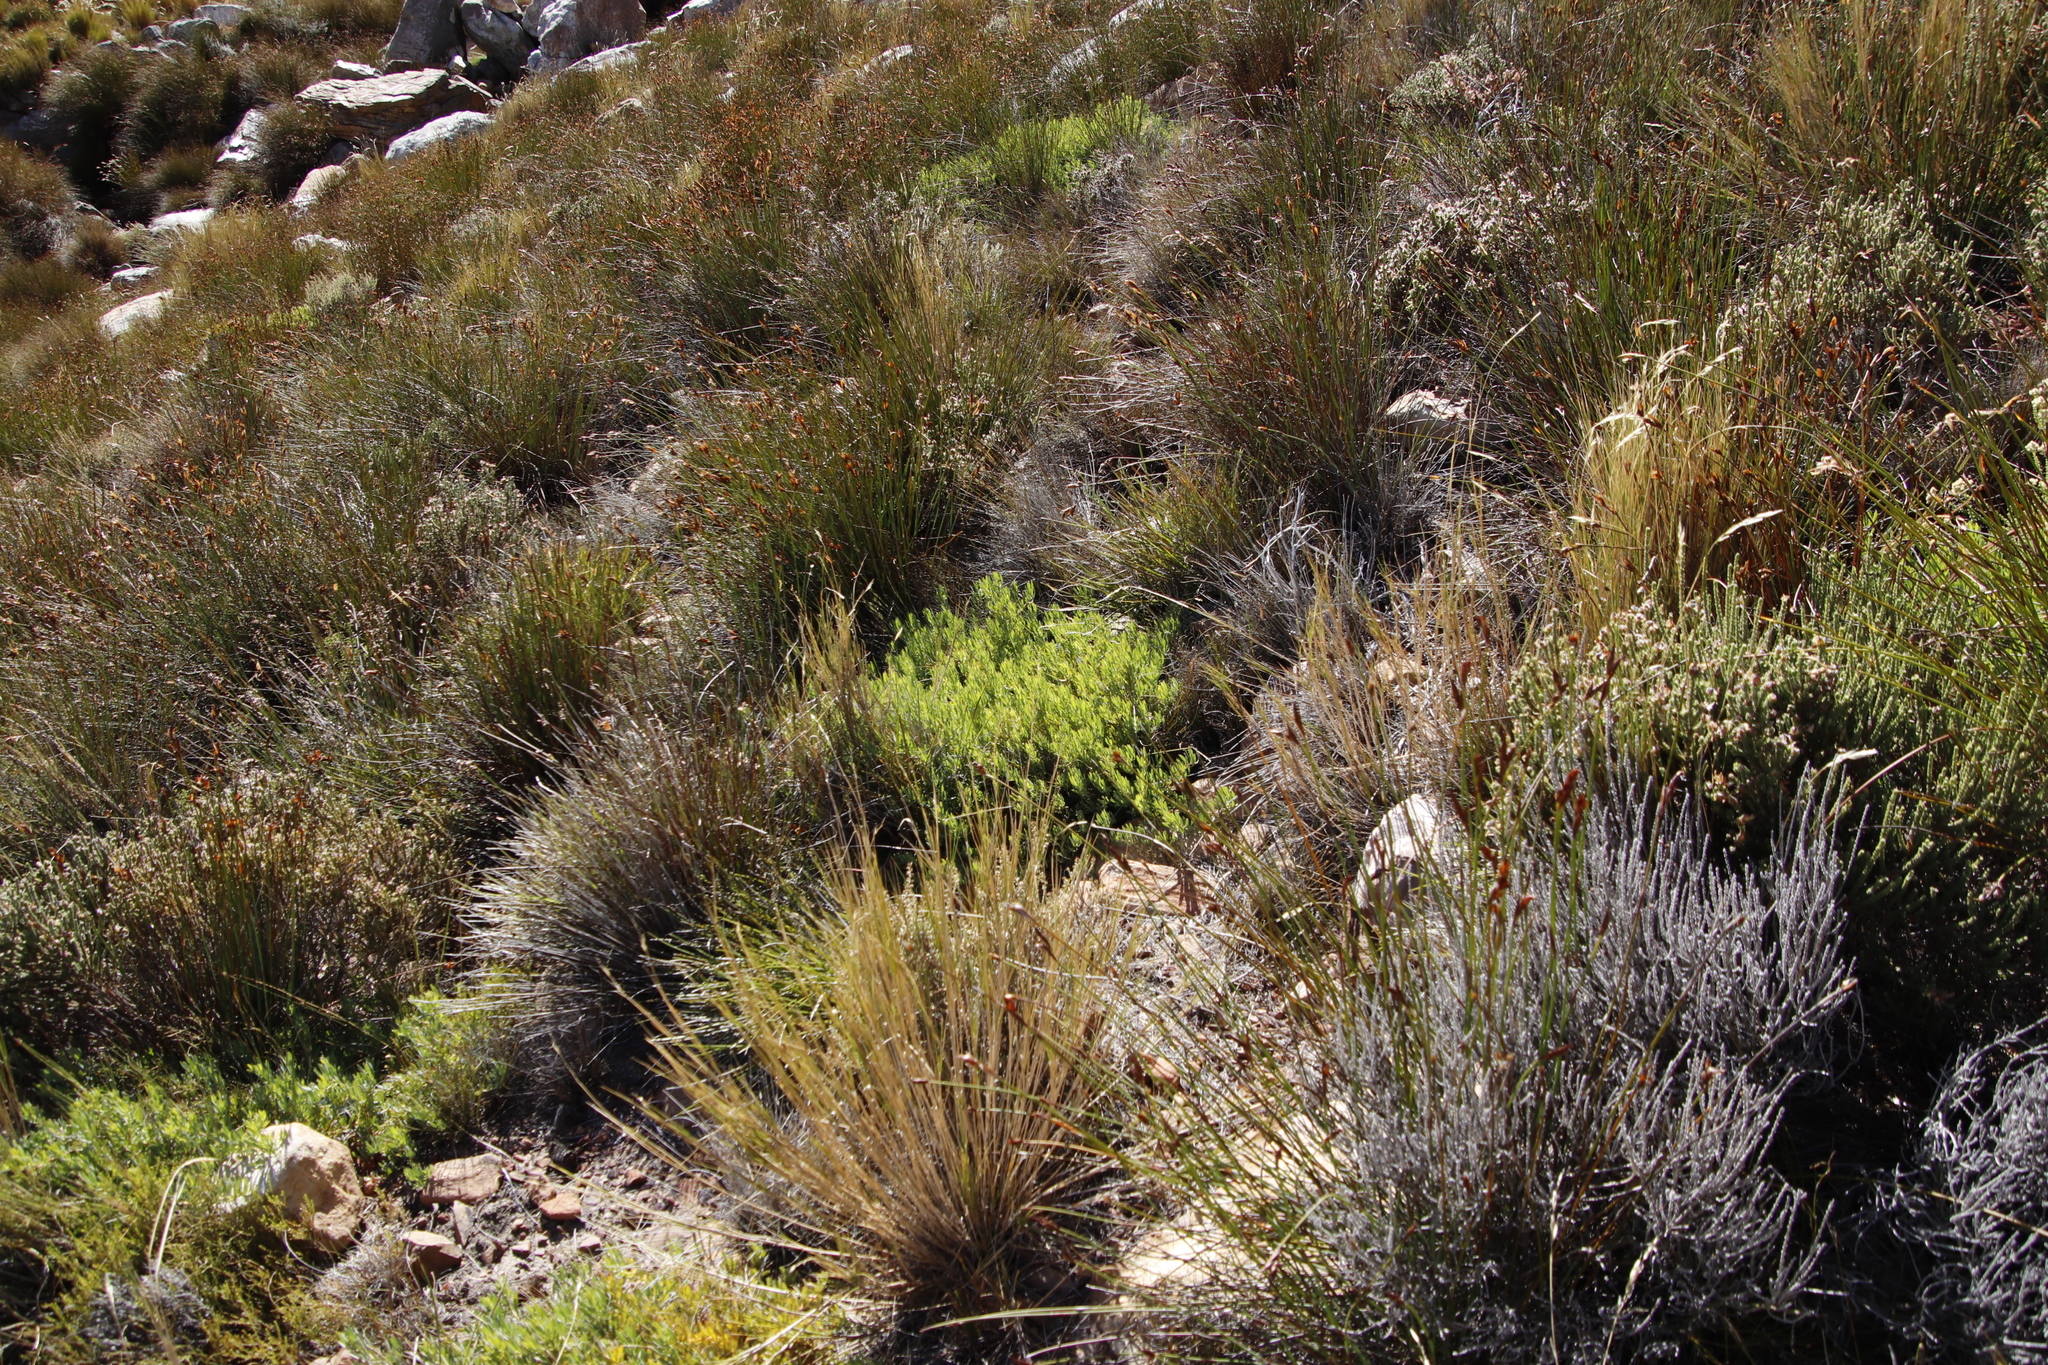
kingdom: Plantae
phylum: Tracheophyta
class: Magnoliopsida
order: Proteales
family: Proteaceae
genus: Leucadendron
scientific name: Leucadendron glaberrimum
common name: Common oily conebush
